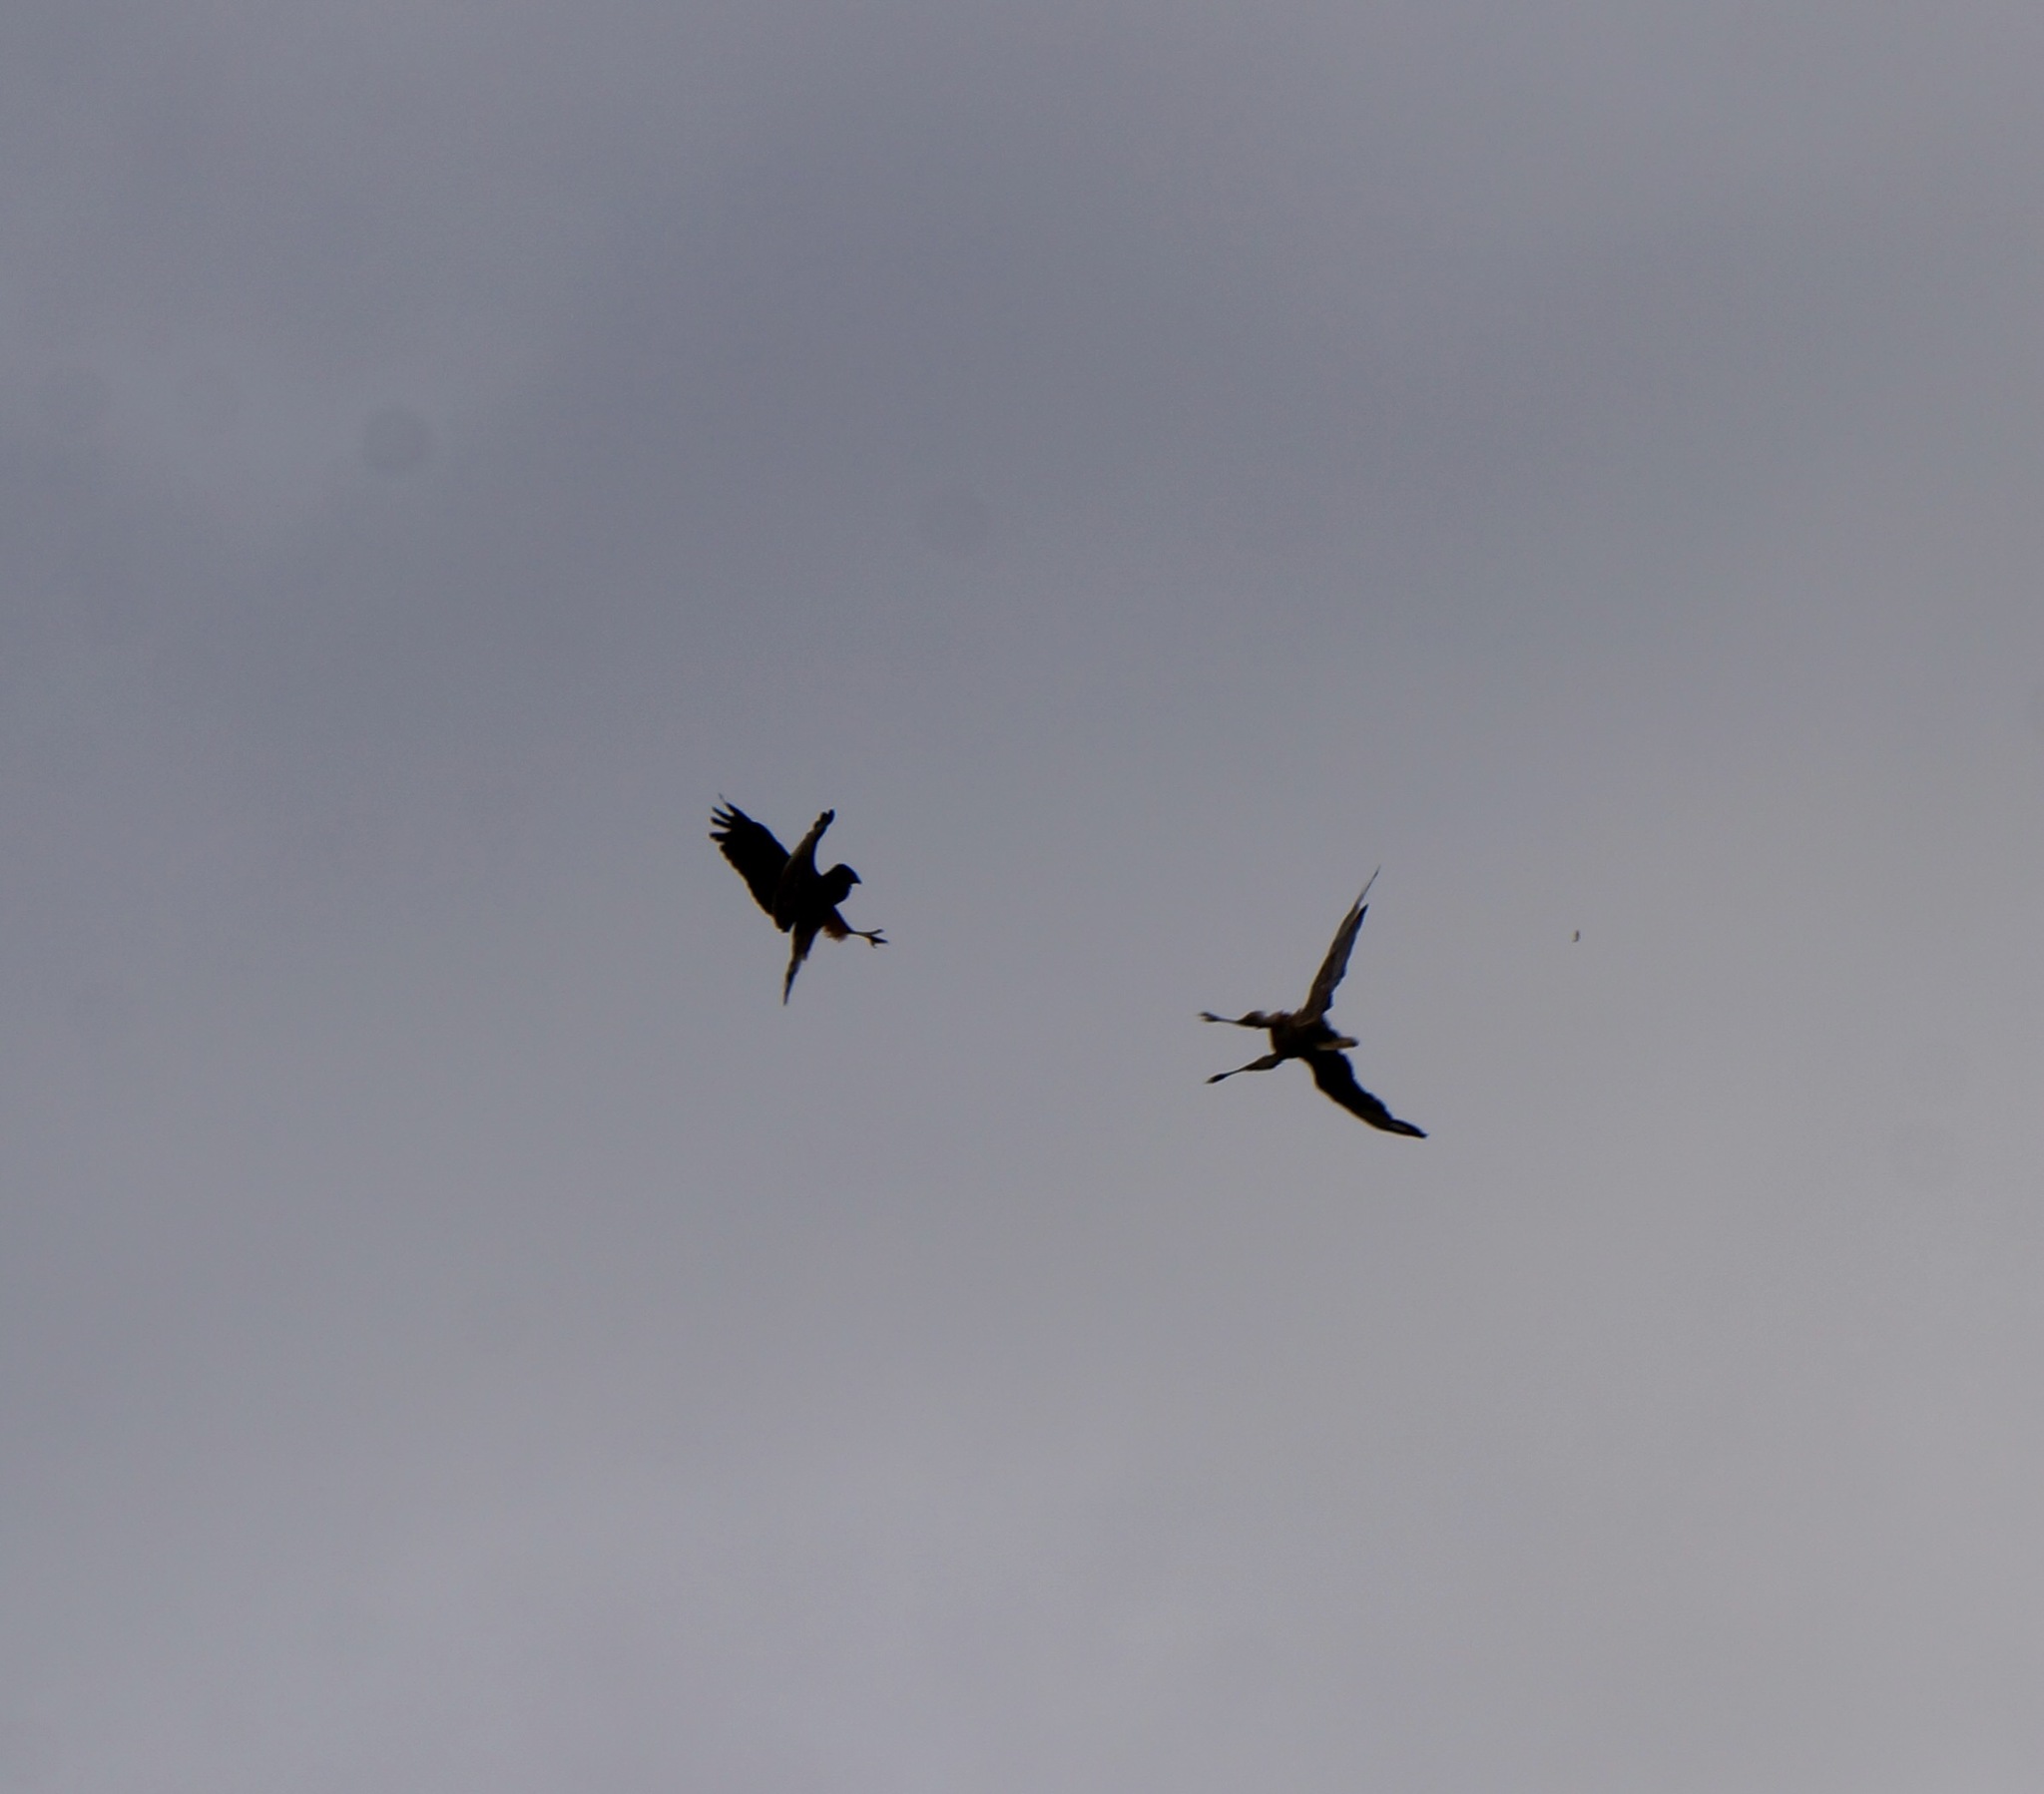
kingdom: Animalia
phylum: Chordata
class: Aves
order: Accipitriformes
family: Accipitridae
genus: Circus
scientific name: Circus approximans
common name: Swamp harrier
